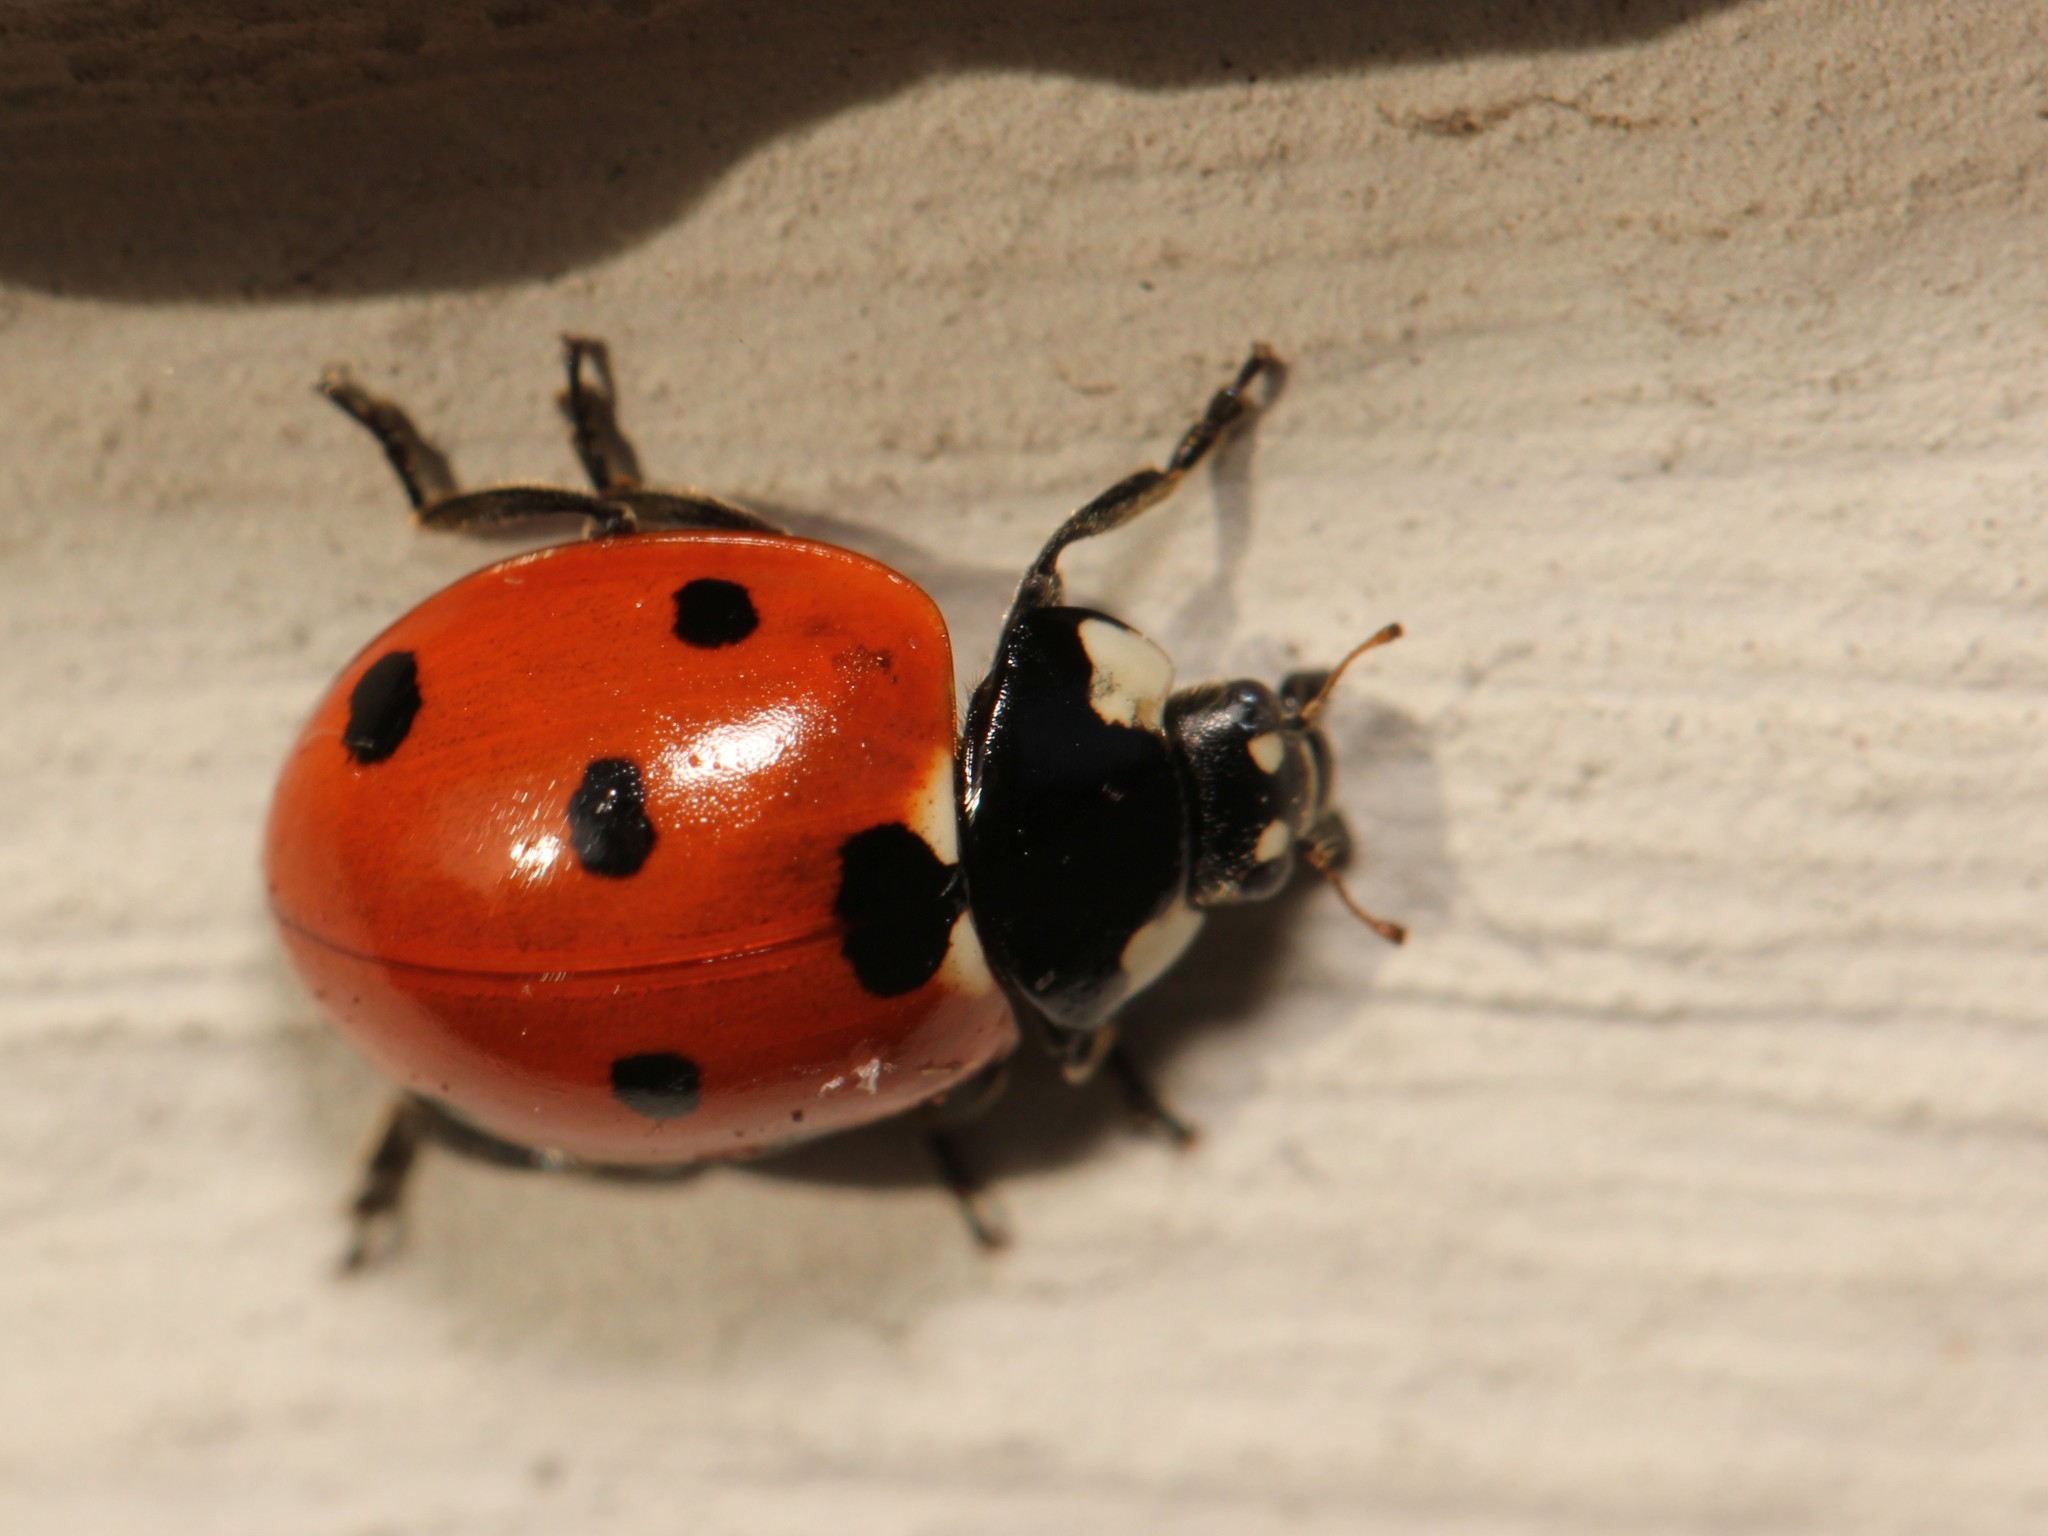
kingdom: Animalia
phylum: Arthropoda
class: Insecta
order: Coleoptera
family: Coccinellidae
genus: Coccinella
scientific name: Coccinella septempunctata
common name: Sevenspotted lady beetle
